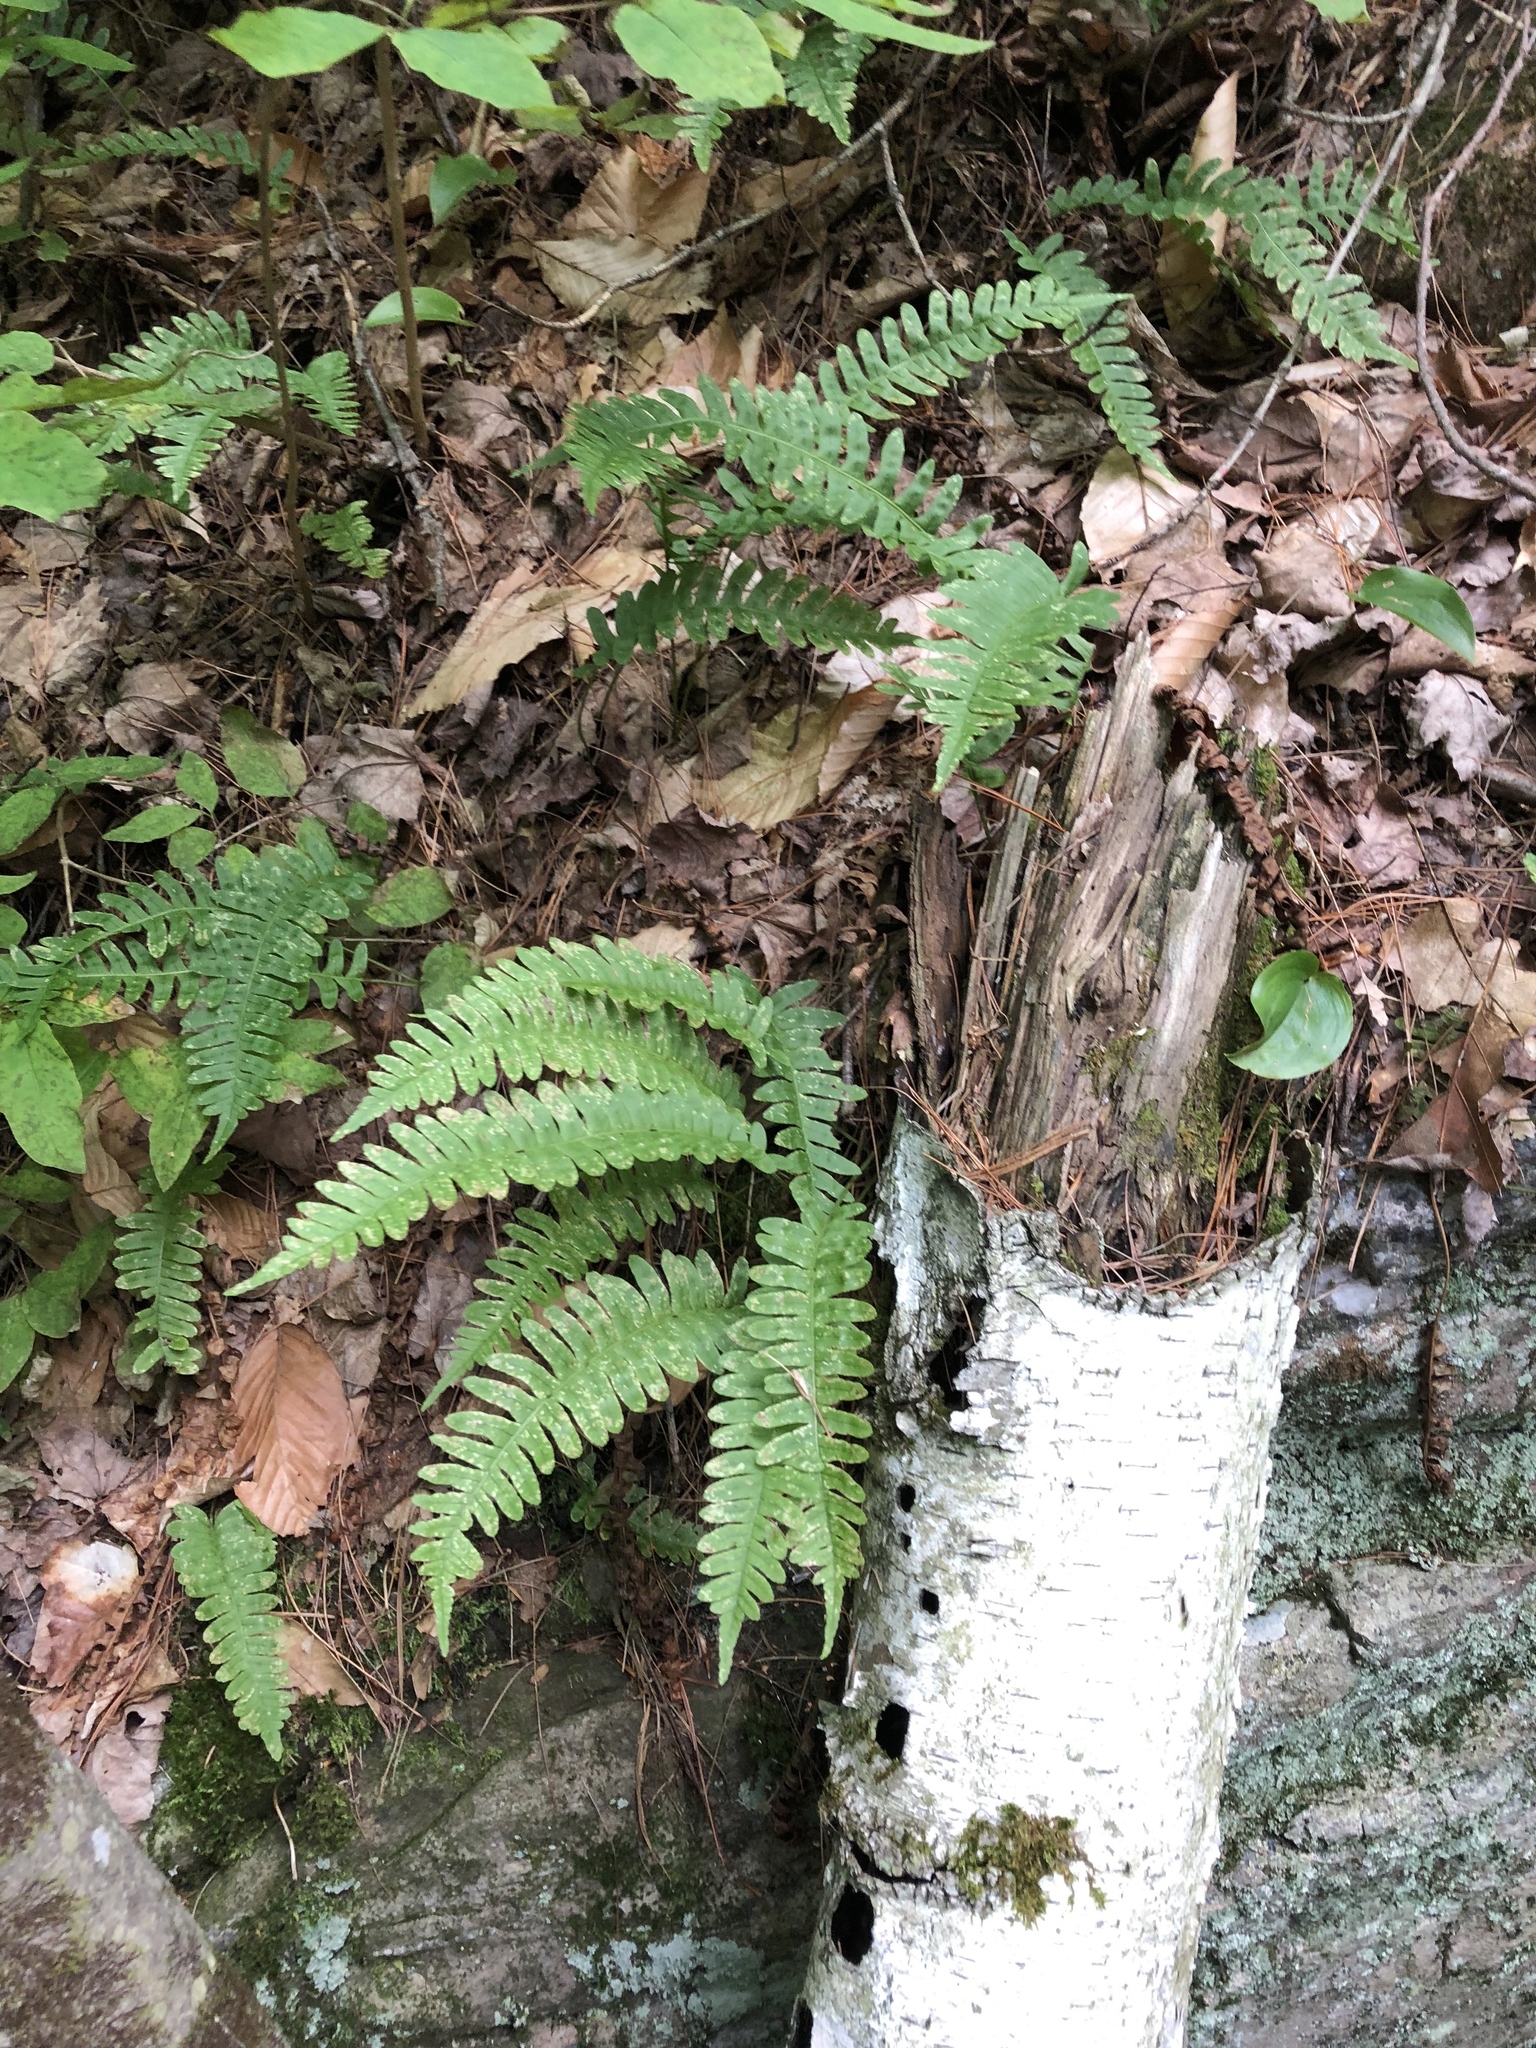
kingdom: Plantae
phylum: Tracheophyta
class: Polypodiopsida
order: Polypodiales
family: Polypodiaceae
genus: Polypodium
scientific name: Polypodium virginianum
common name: American wall fern
